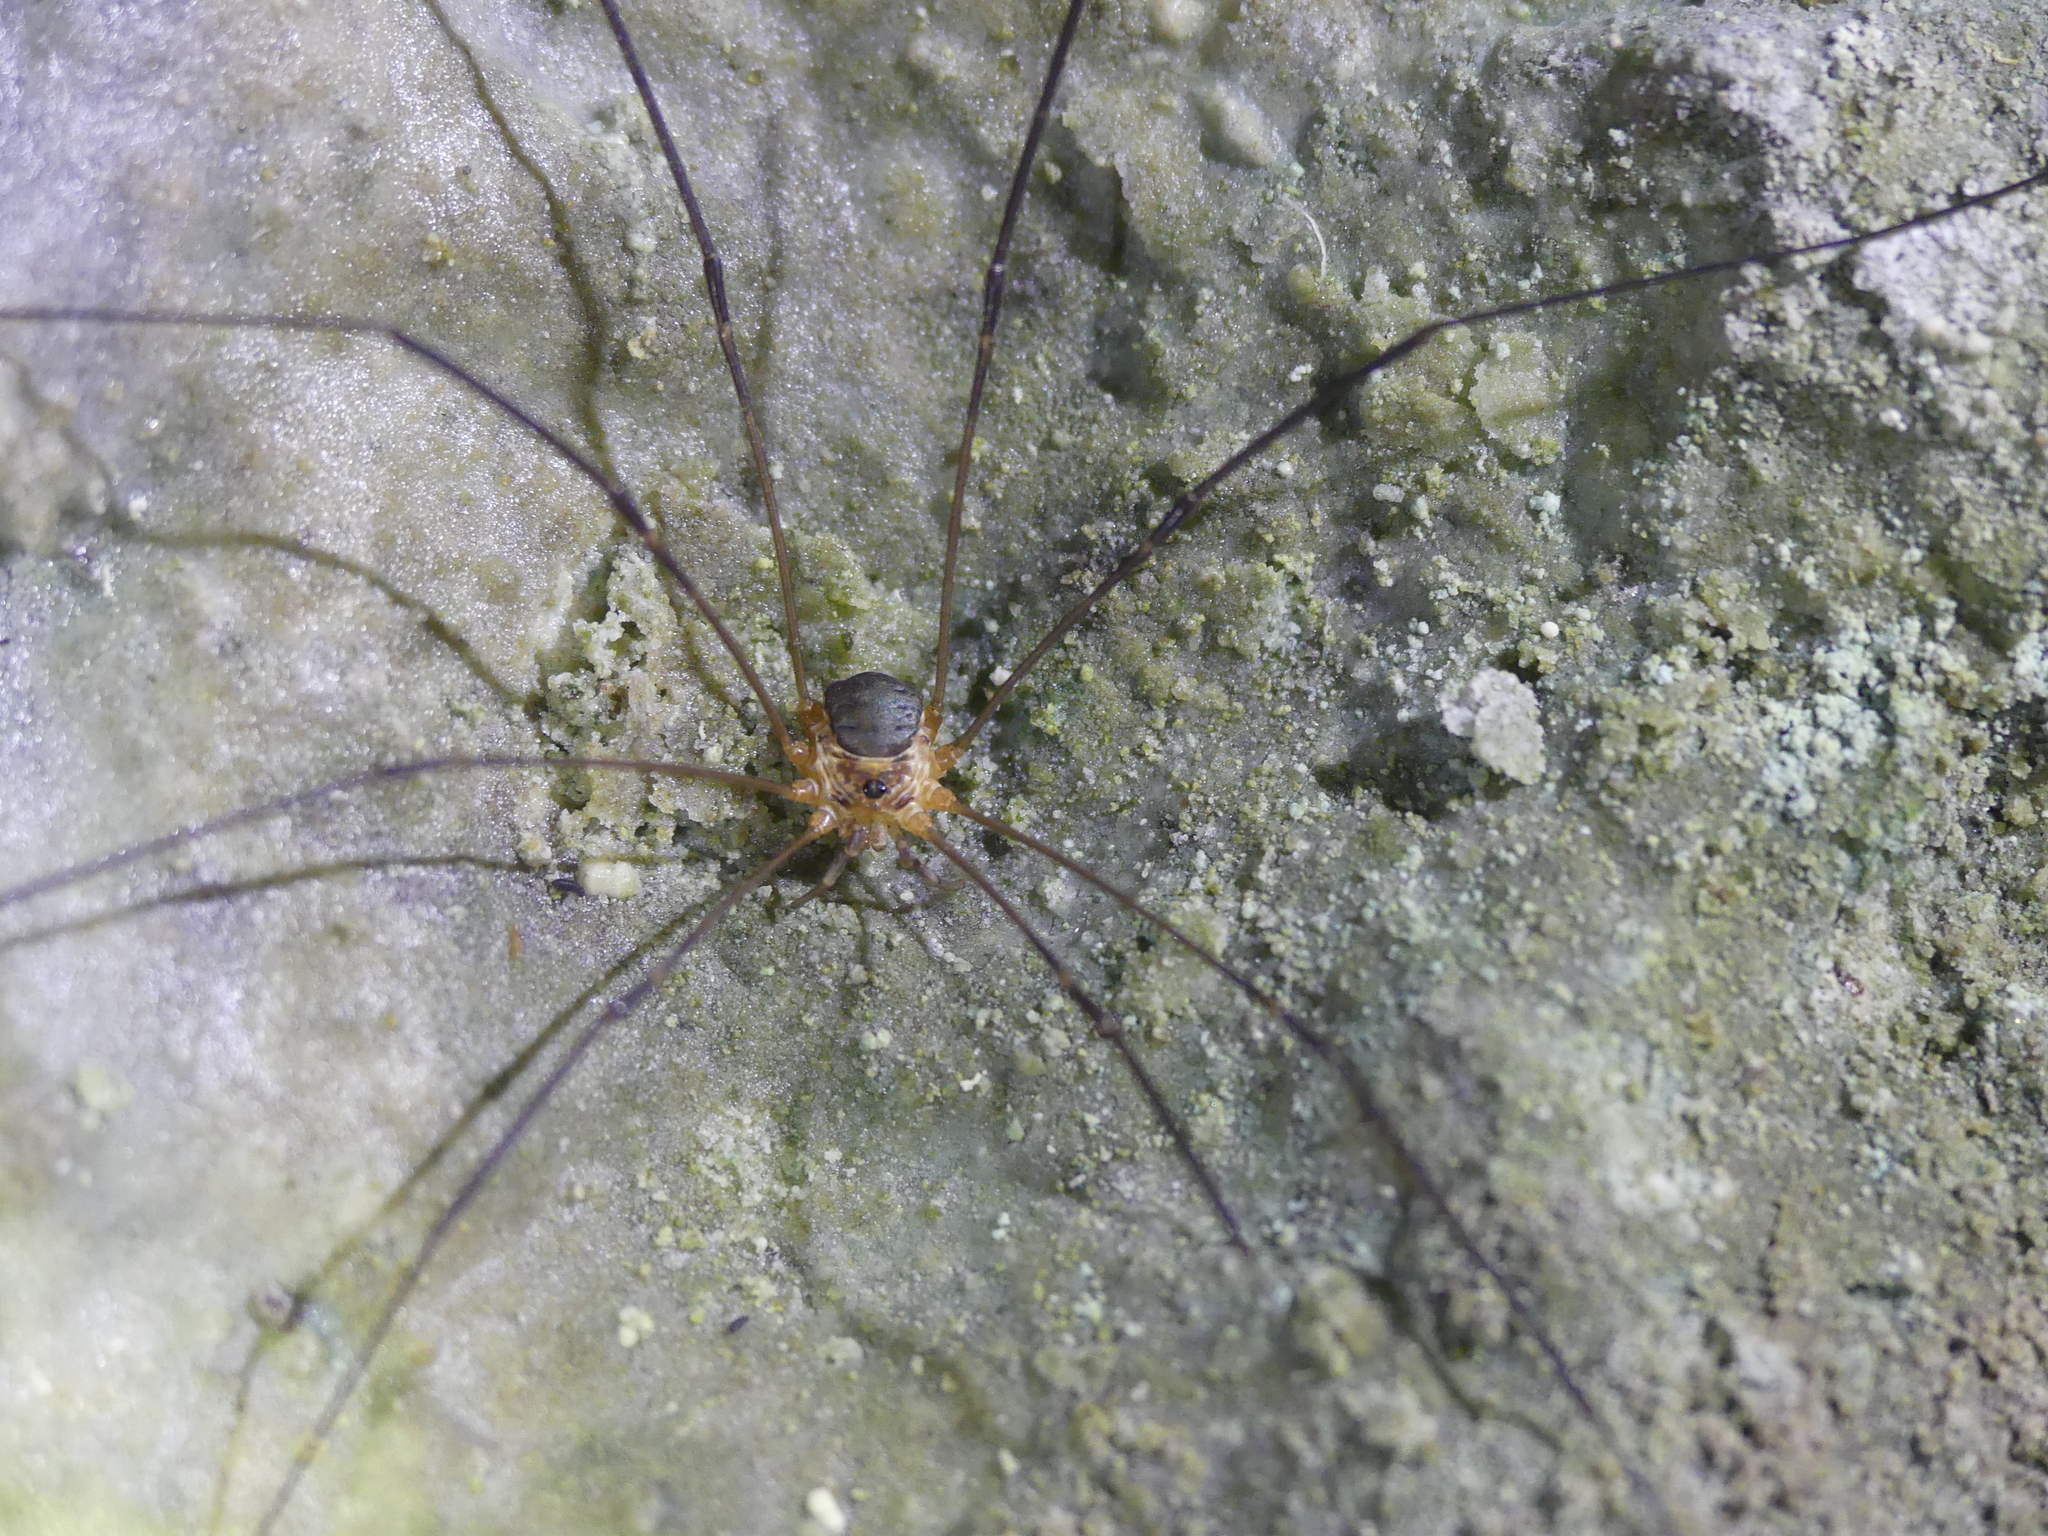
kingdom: Animalia
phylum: Arthropoda
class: Arachnida
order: Opiliones
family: Phalangiidae
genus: Amilenus
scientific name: Amilenus aurantiacus
